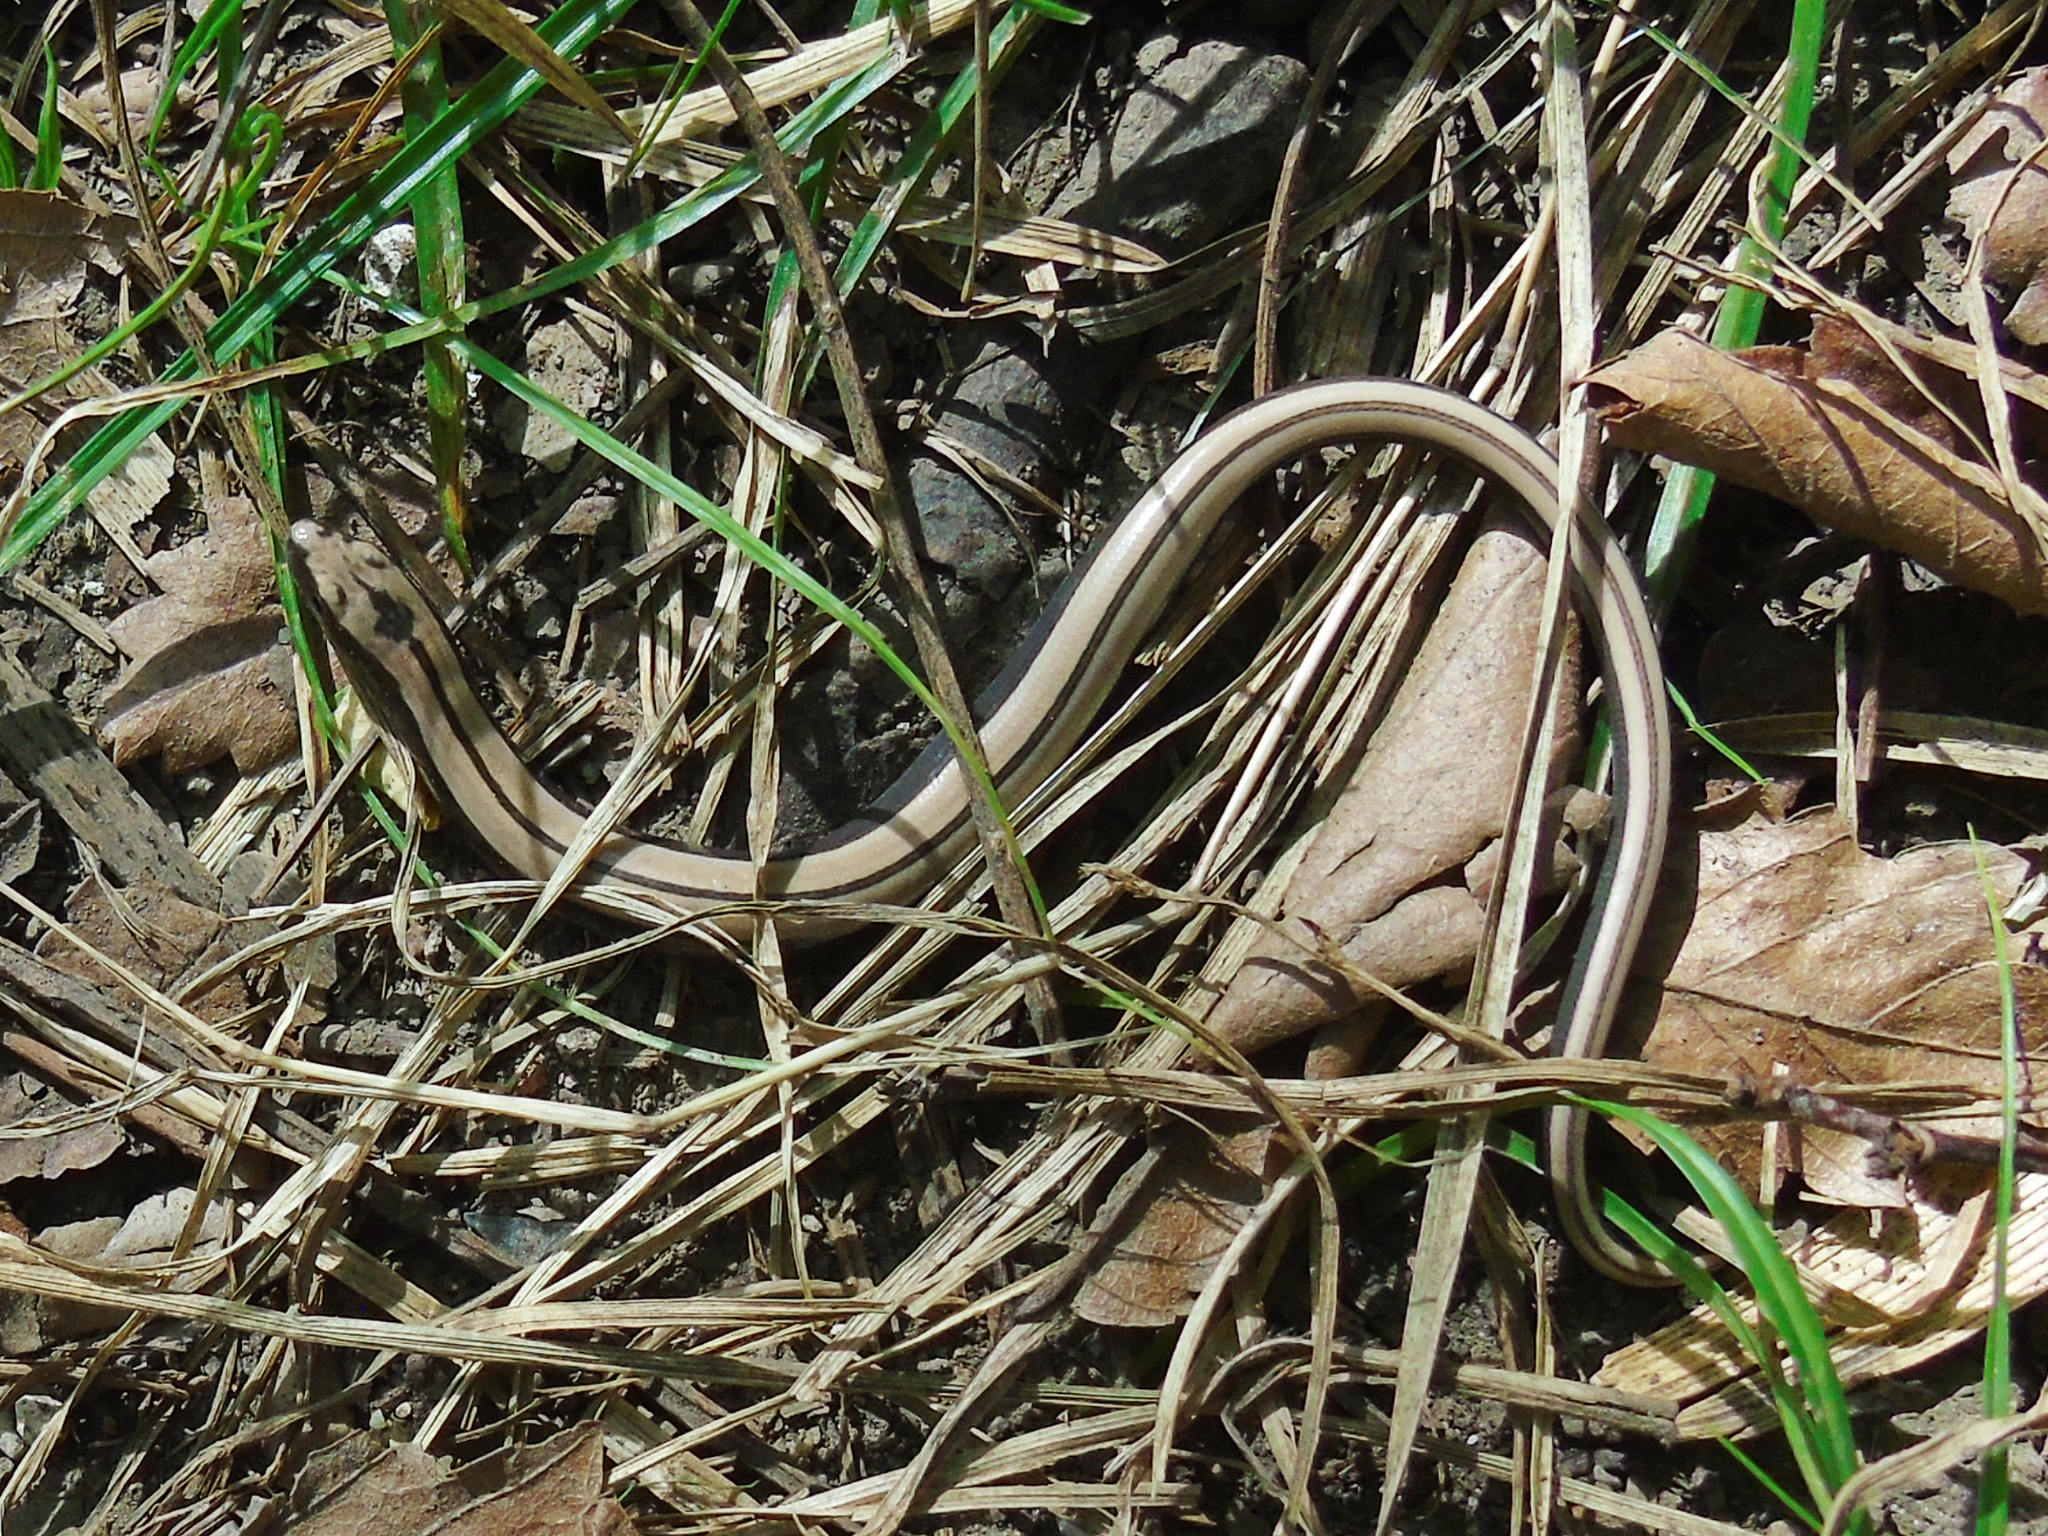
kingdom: Animalia
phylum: Chordata
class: Squamata
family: Anguidae
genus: Anguis
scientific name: Anguis colchica
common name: Slow worm
